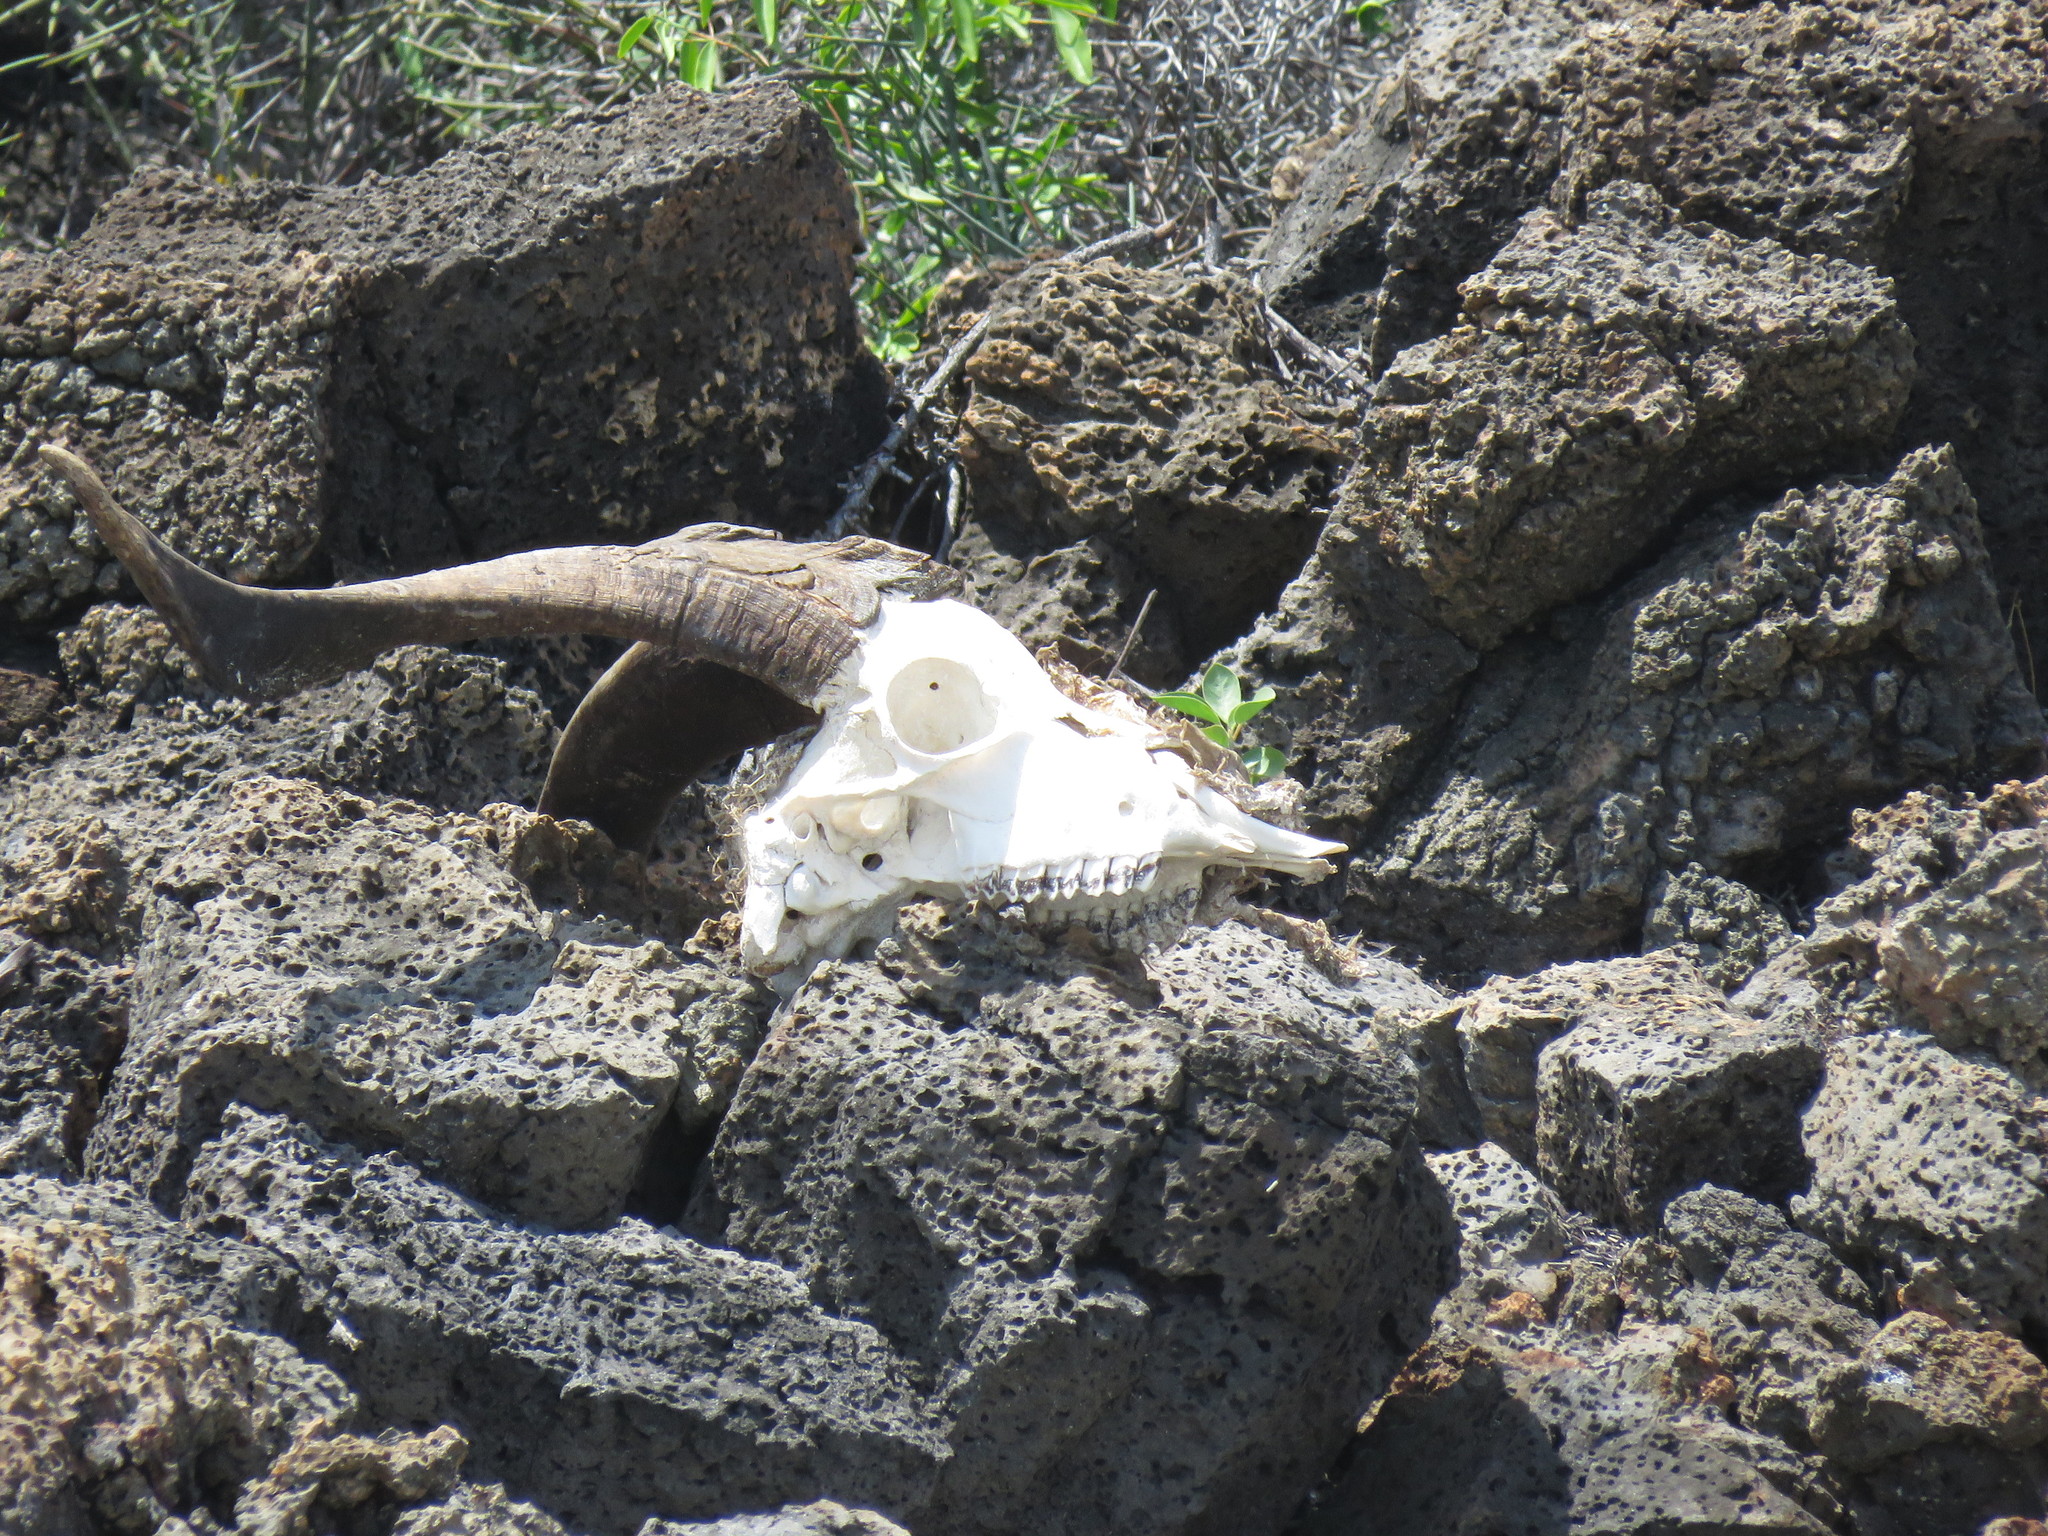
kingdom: Animalia
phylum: Chordata
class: Mammalia
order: Artiodactyla
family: Bovidae
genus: Capra
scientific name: Capra hircus
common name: Domestic goat
